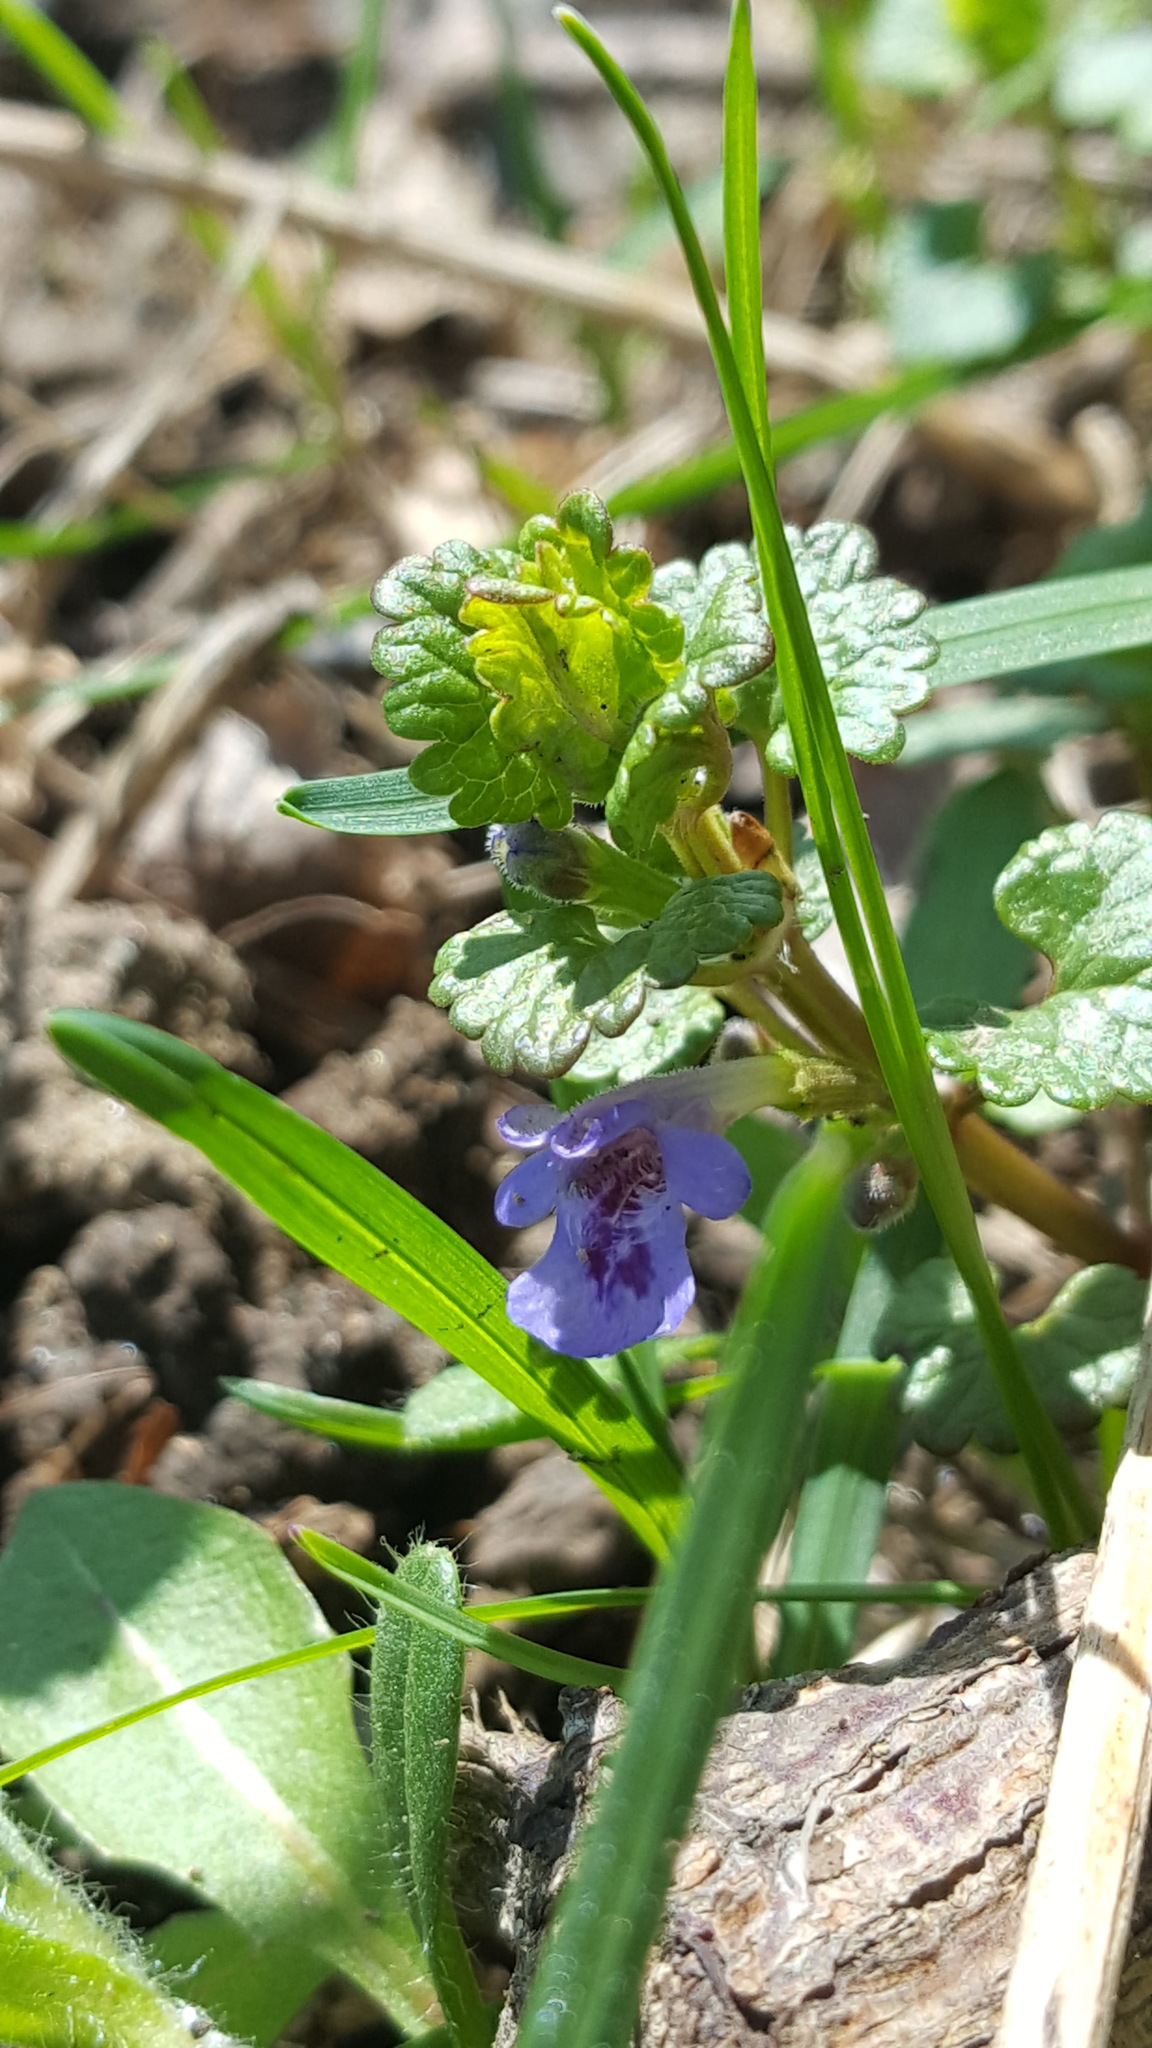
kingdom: Plantae
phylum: Tracheophyta
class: Magnoliopsida
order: Lamiales
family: Lamiaceae
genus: Glechoma
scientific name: Glechoma hederacea
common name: Ground ivy
